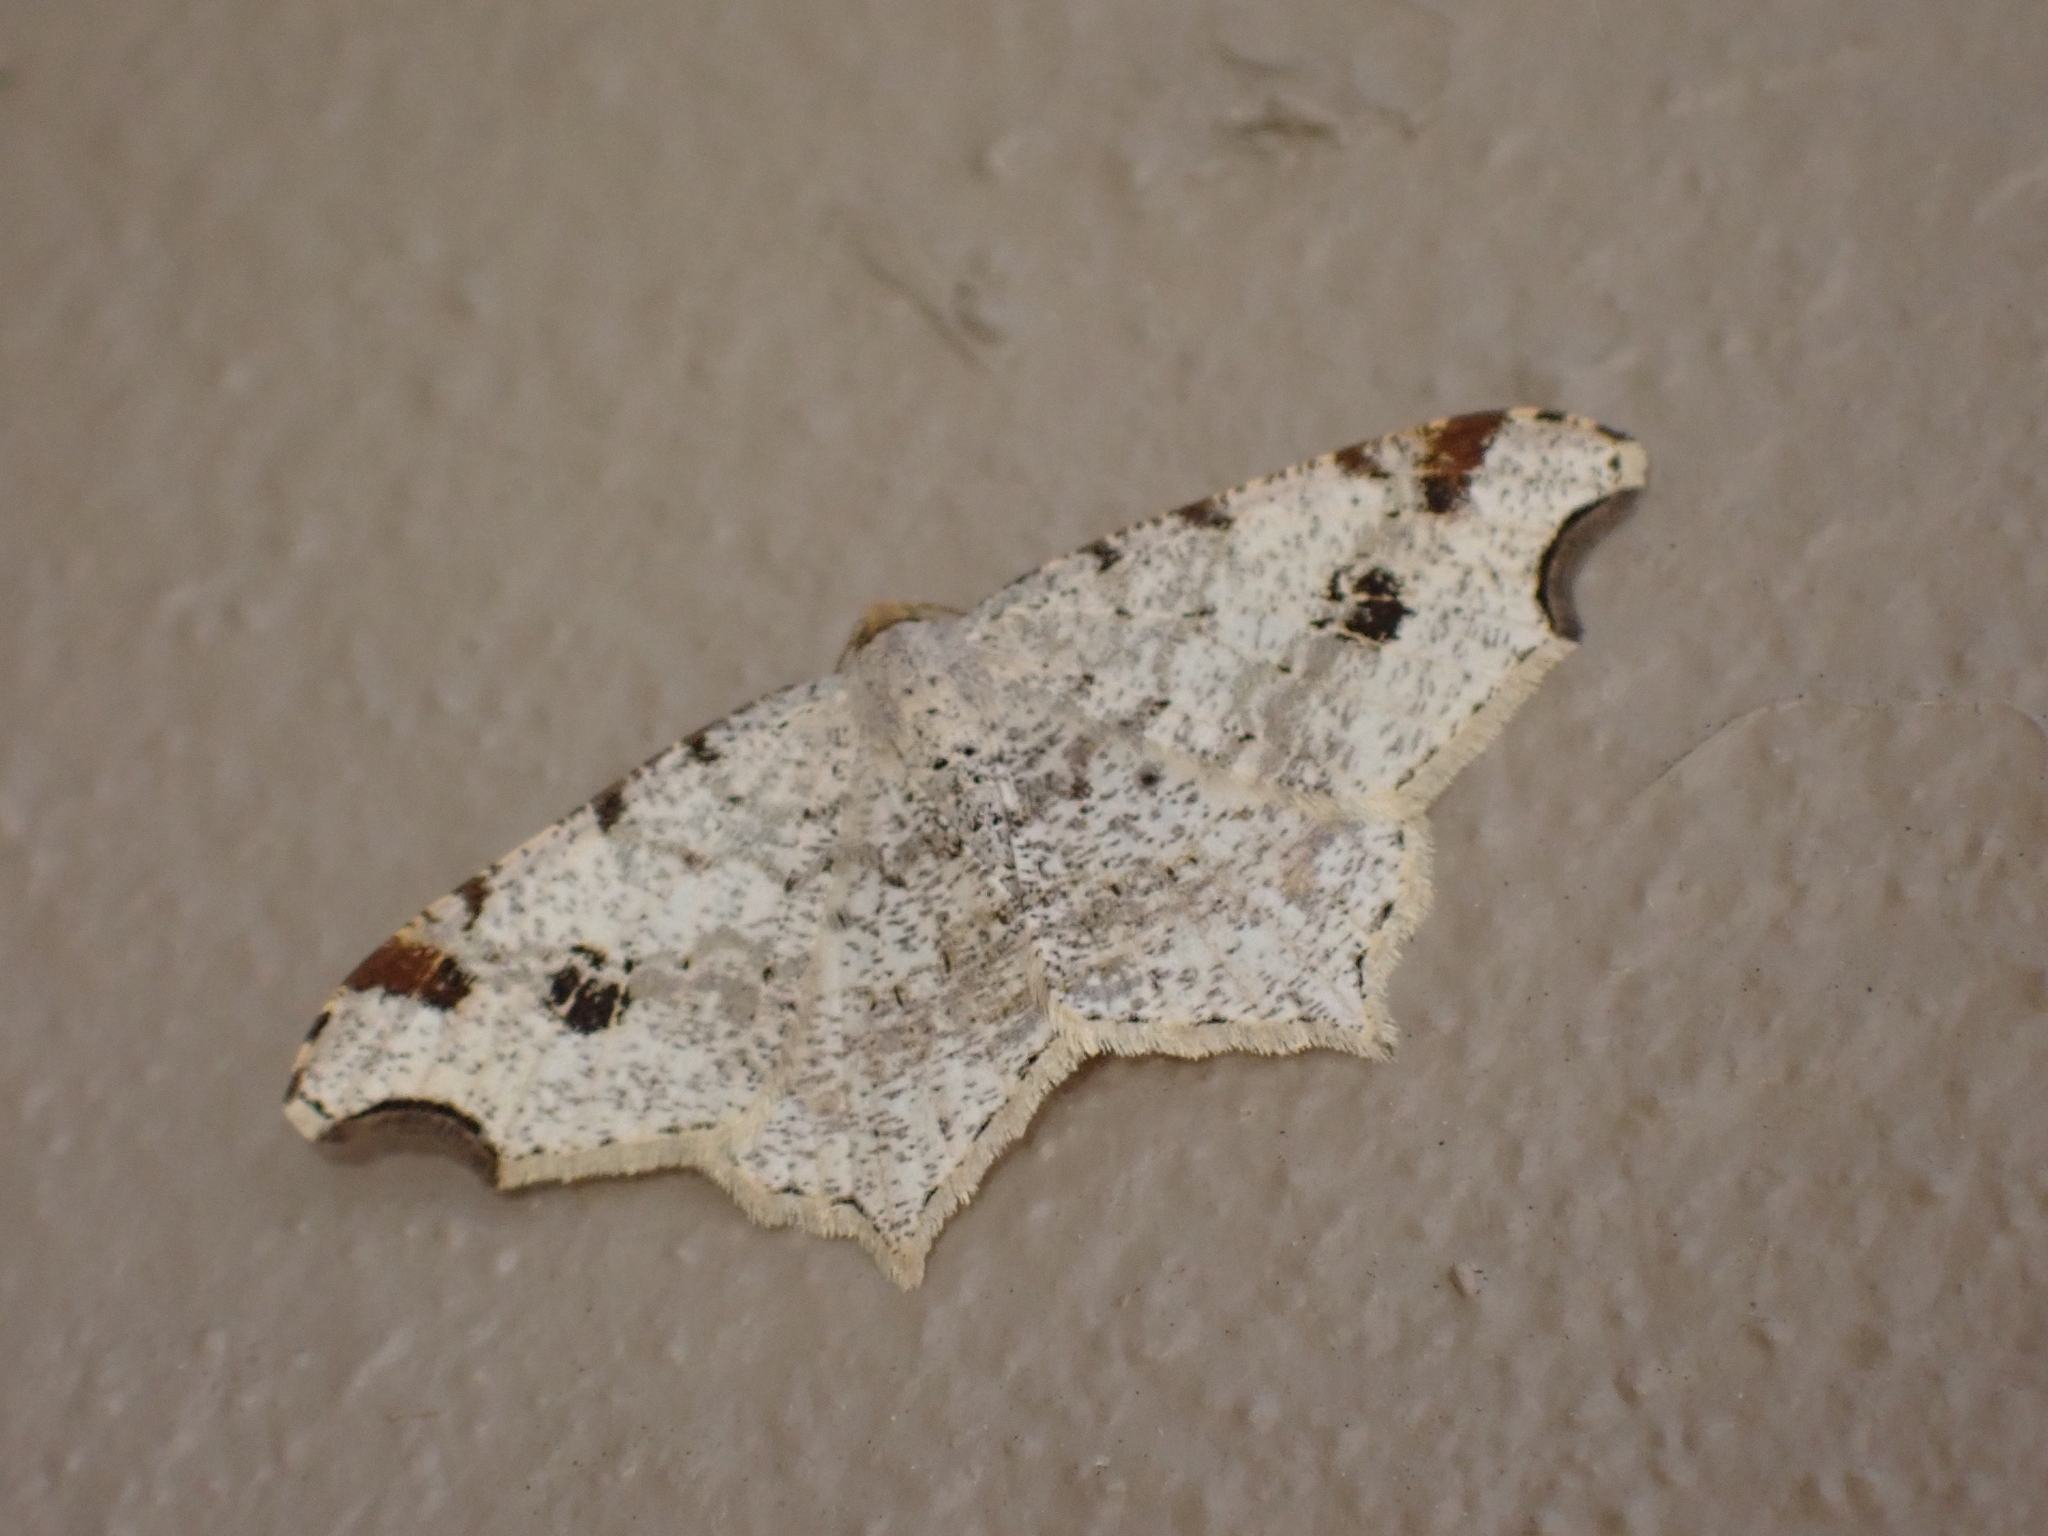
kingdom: Animalia
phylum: Arthropoda
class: Insecta
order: Lepidoptera
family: Geometridae
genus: Macaria
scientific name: Macaria notata
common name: Peacock moth
